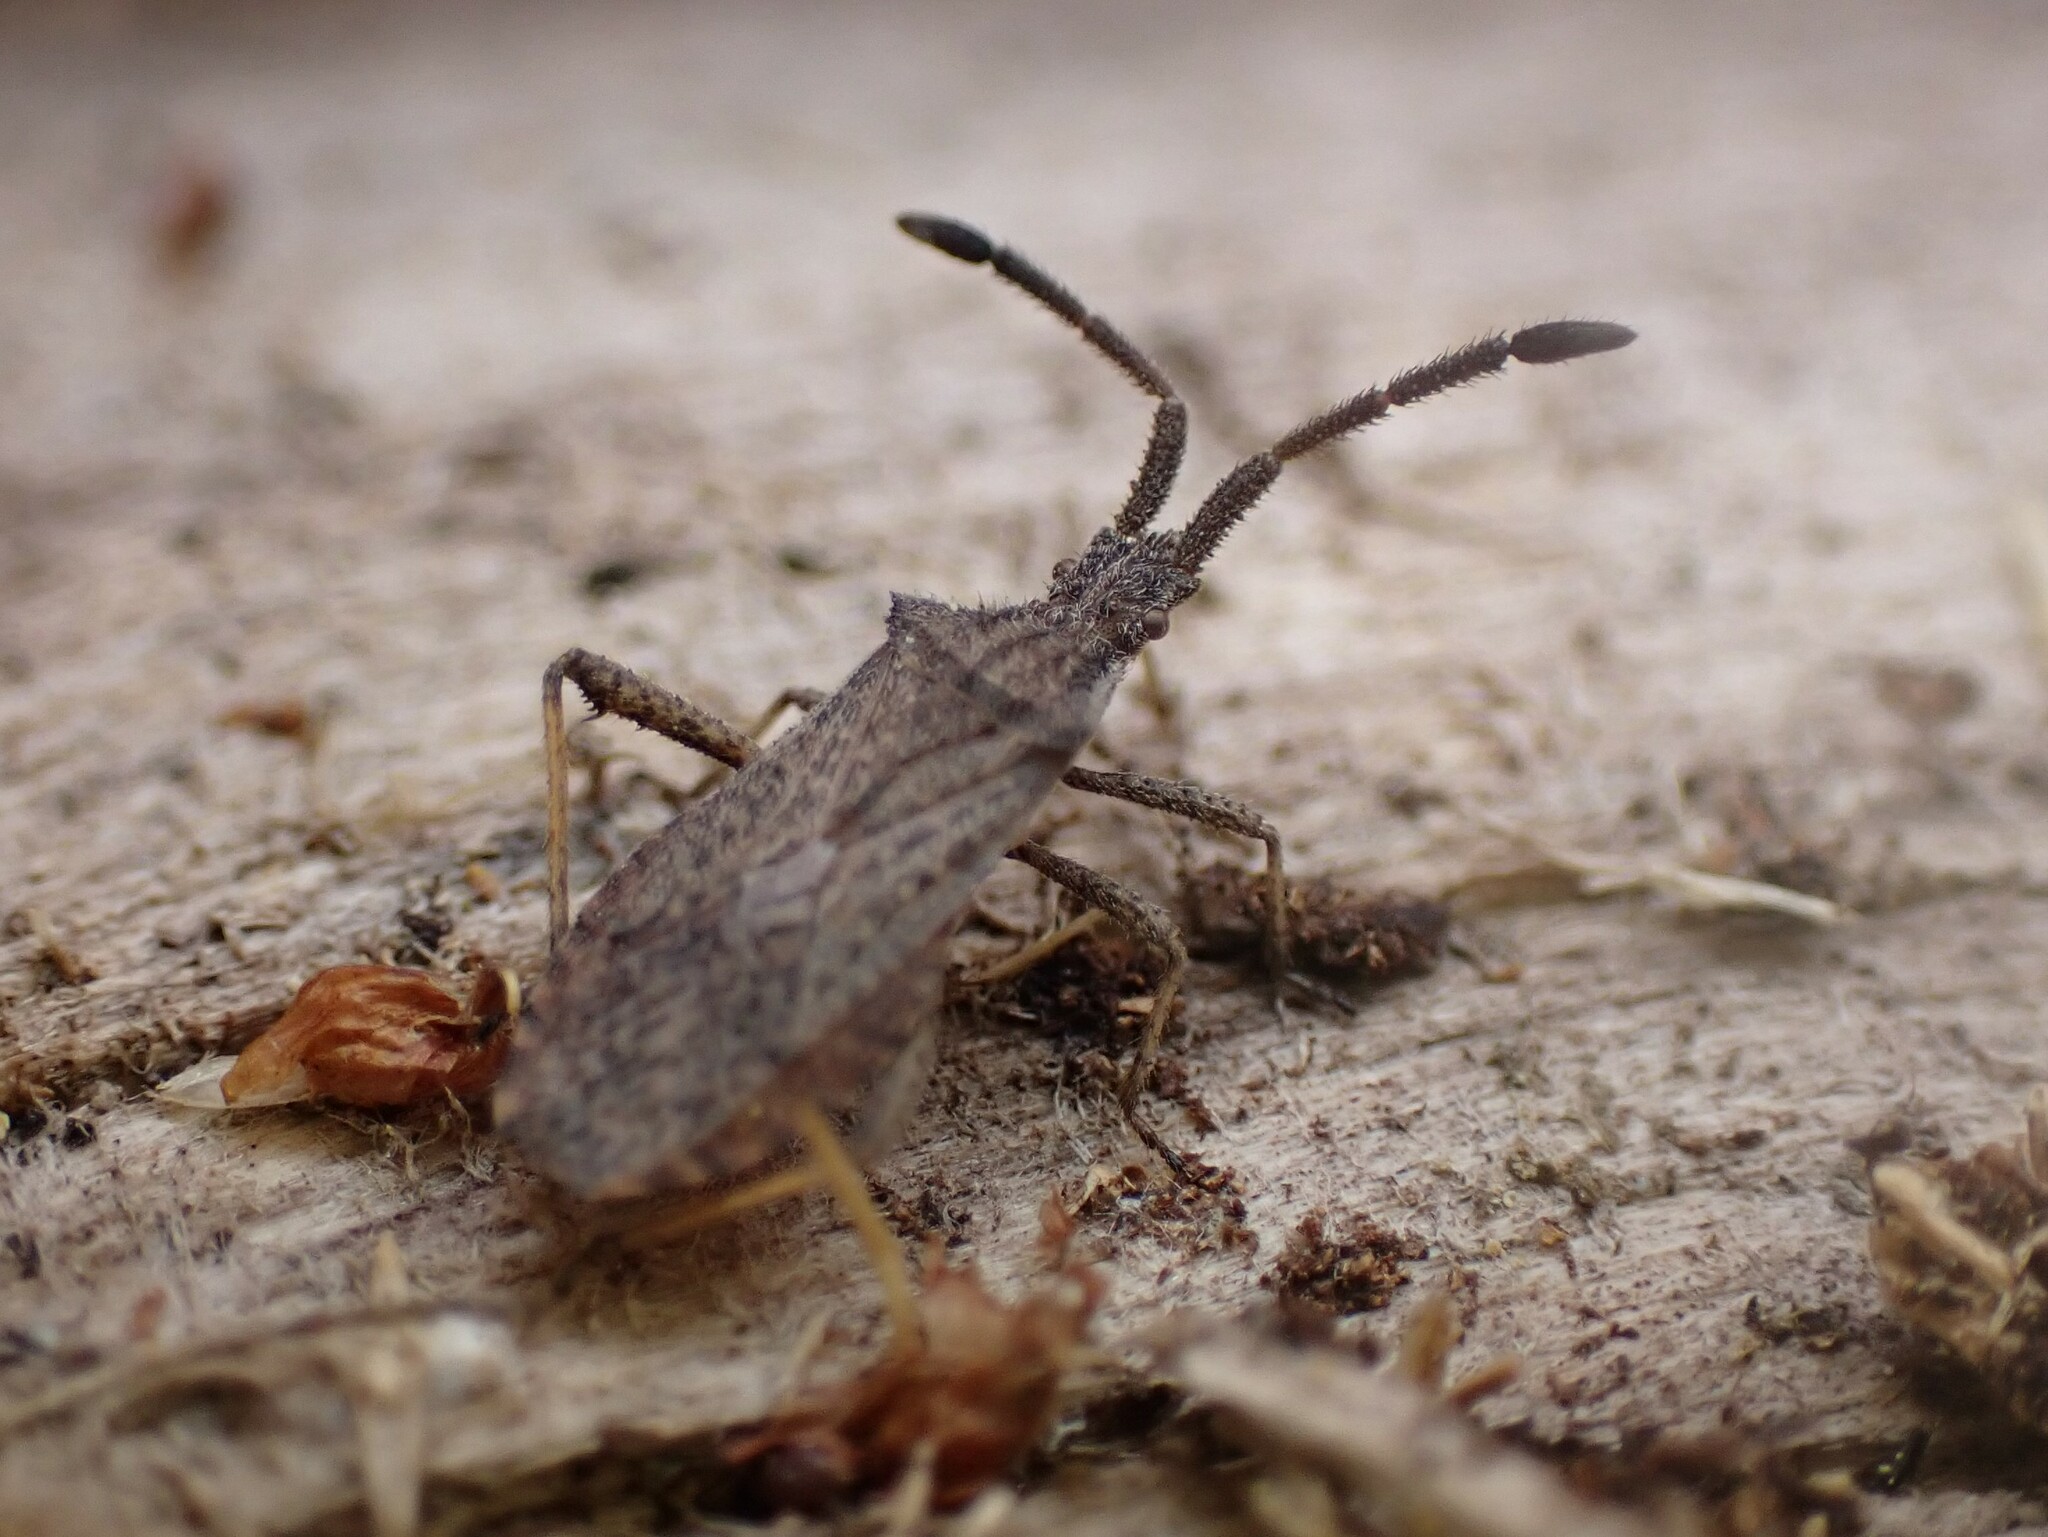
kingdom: Animalia
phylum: Arthropoda
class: Insecta
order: Hemiptera
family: Coreidae
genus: Coriomeris
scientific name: Coriomeris occidentalis
